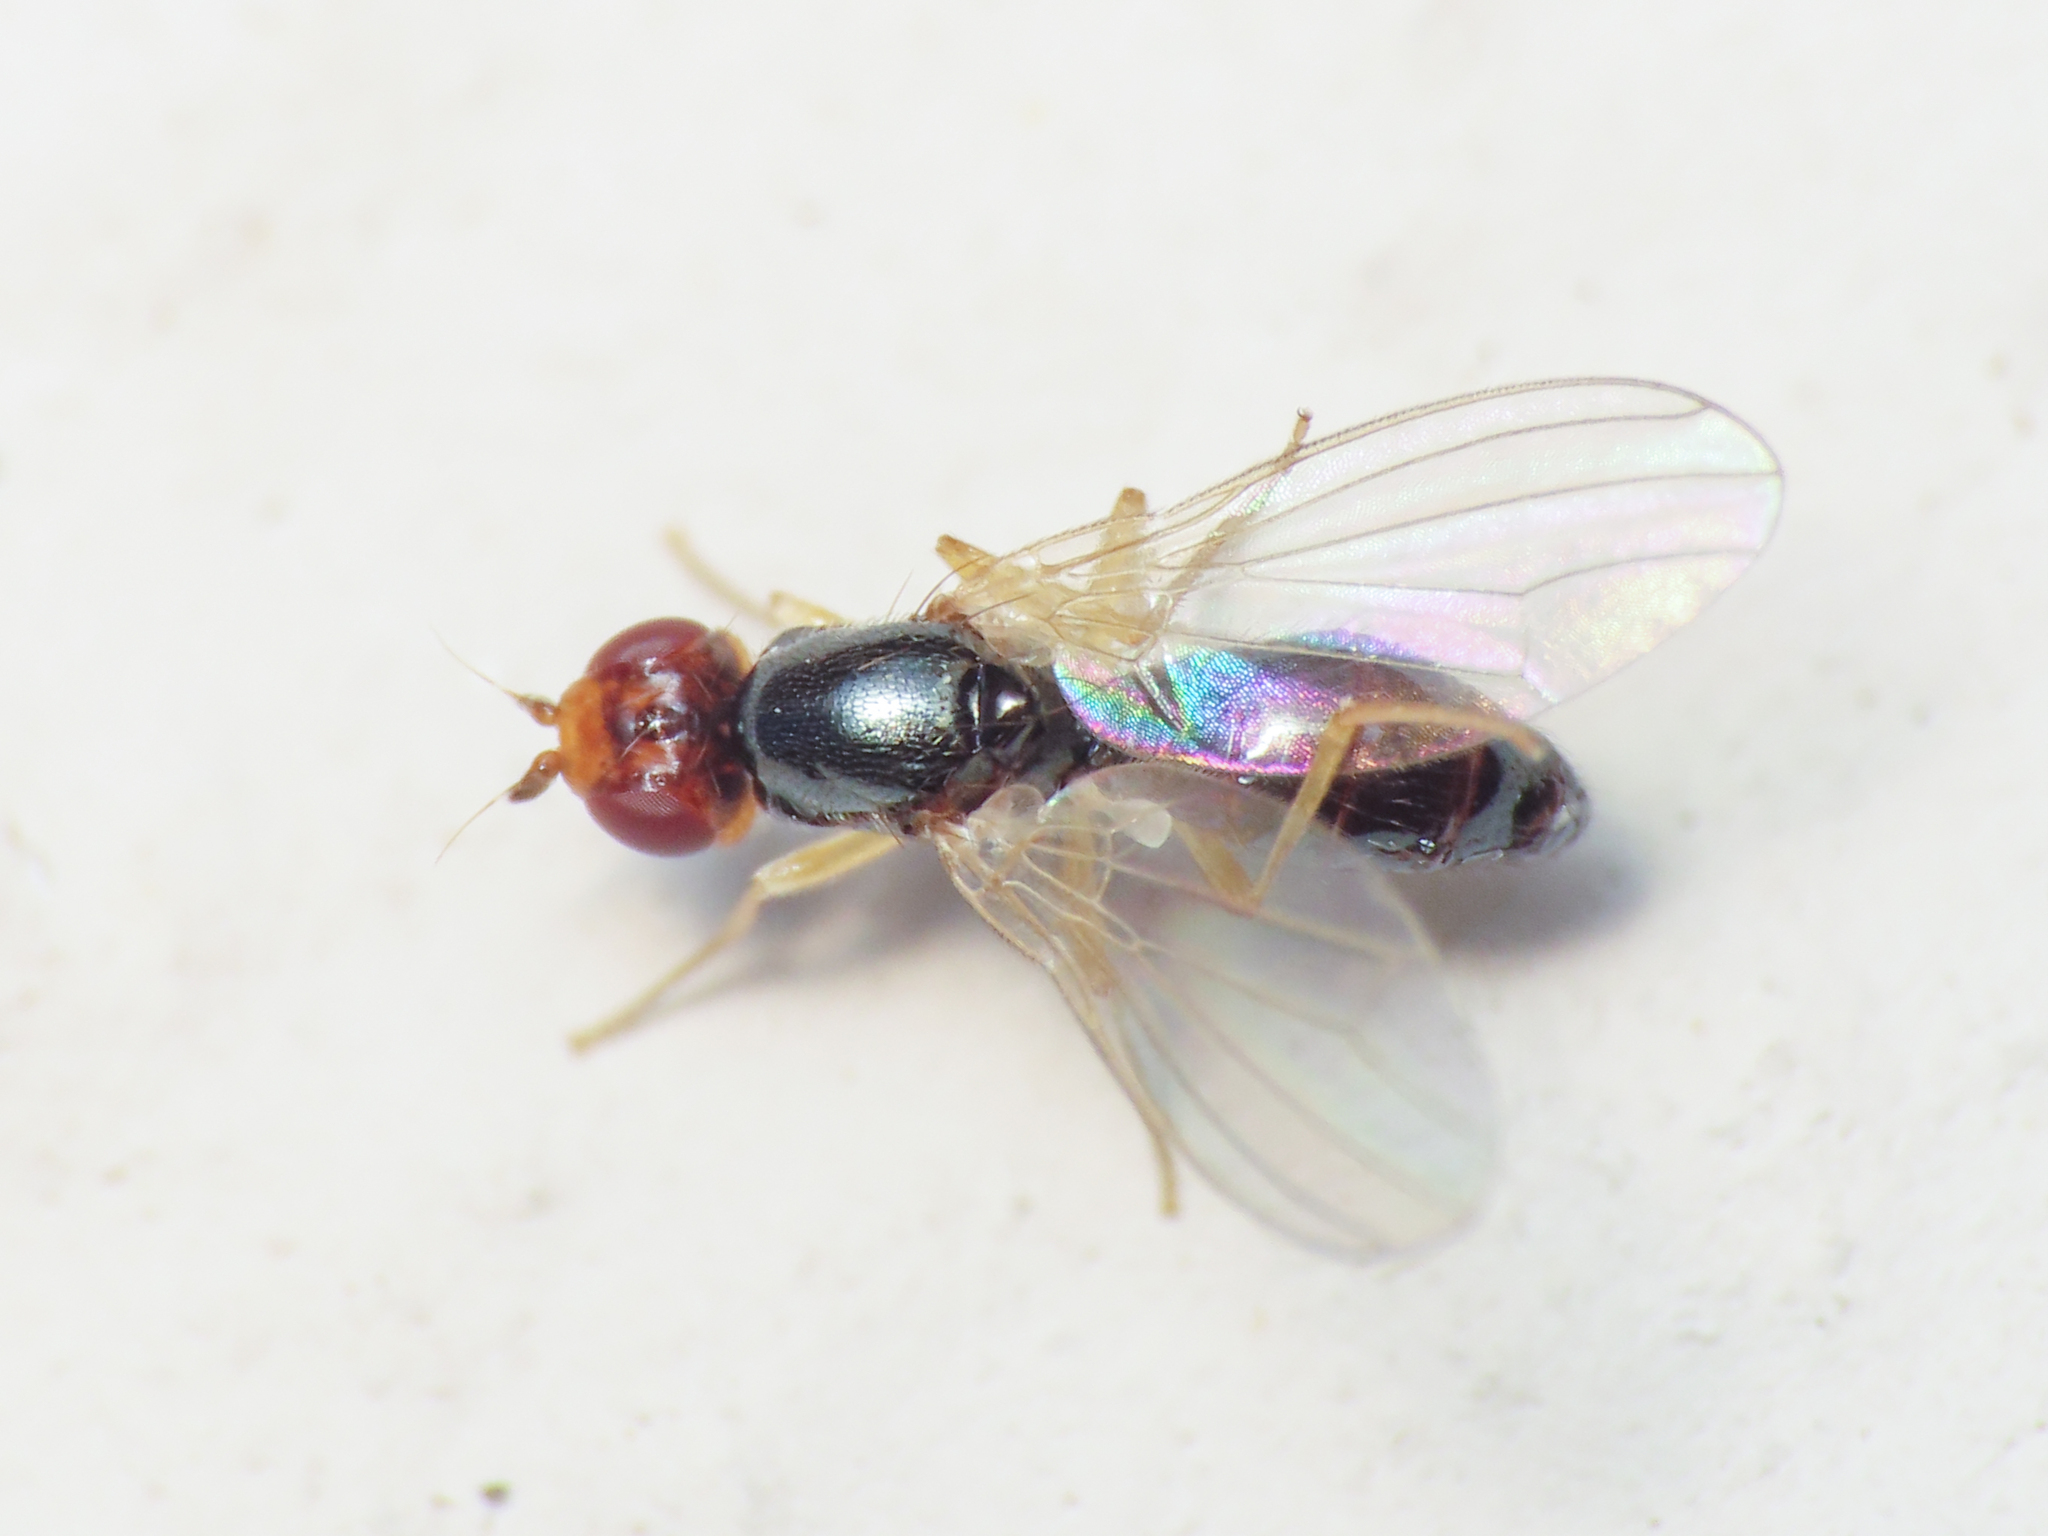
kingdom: Animalia
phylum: Arthropoda
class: Insecta
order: Diptera
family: Psilidae
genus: Psila
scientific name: Psila rosae
